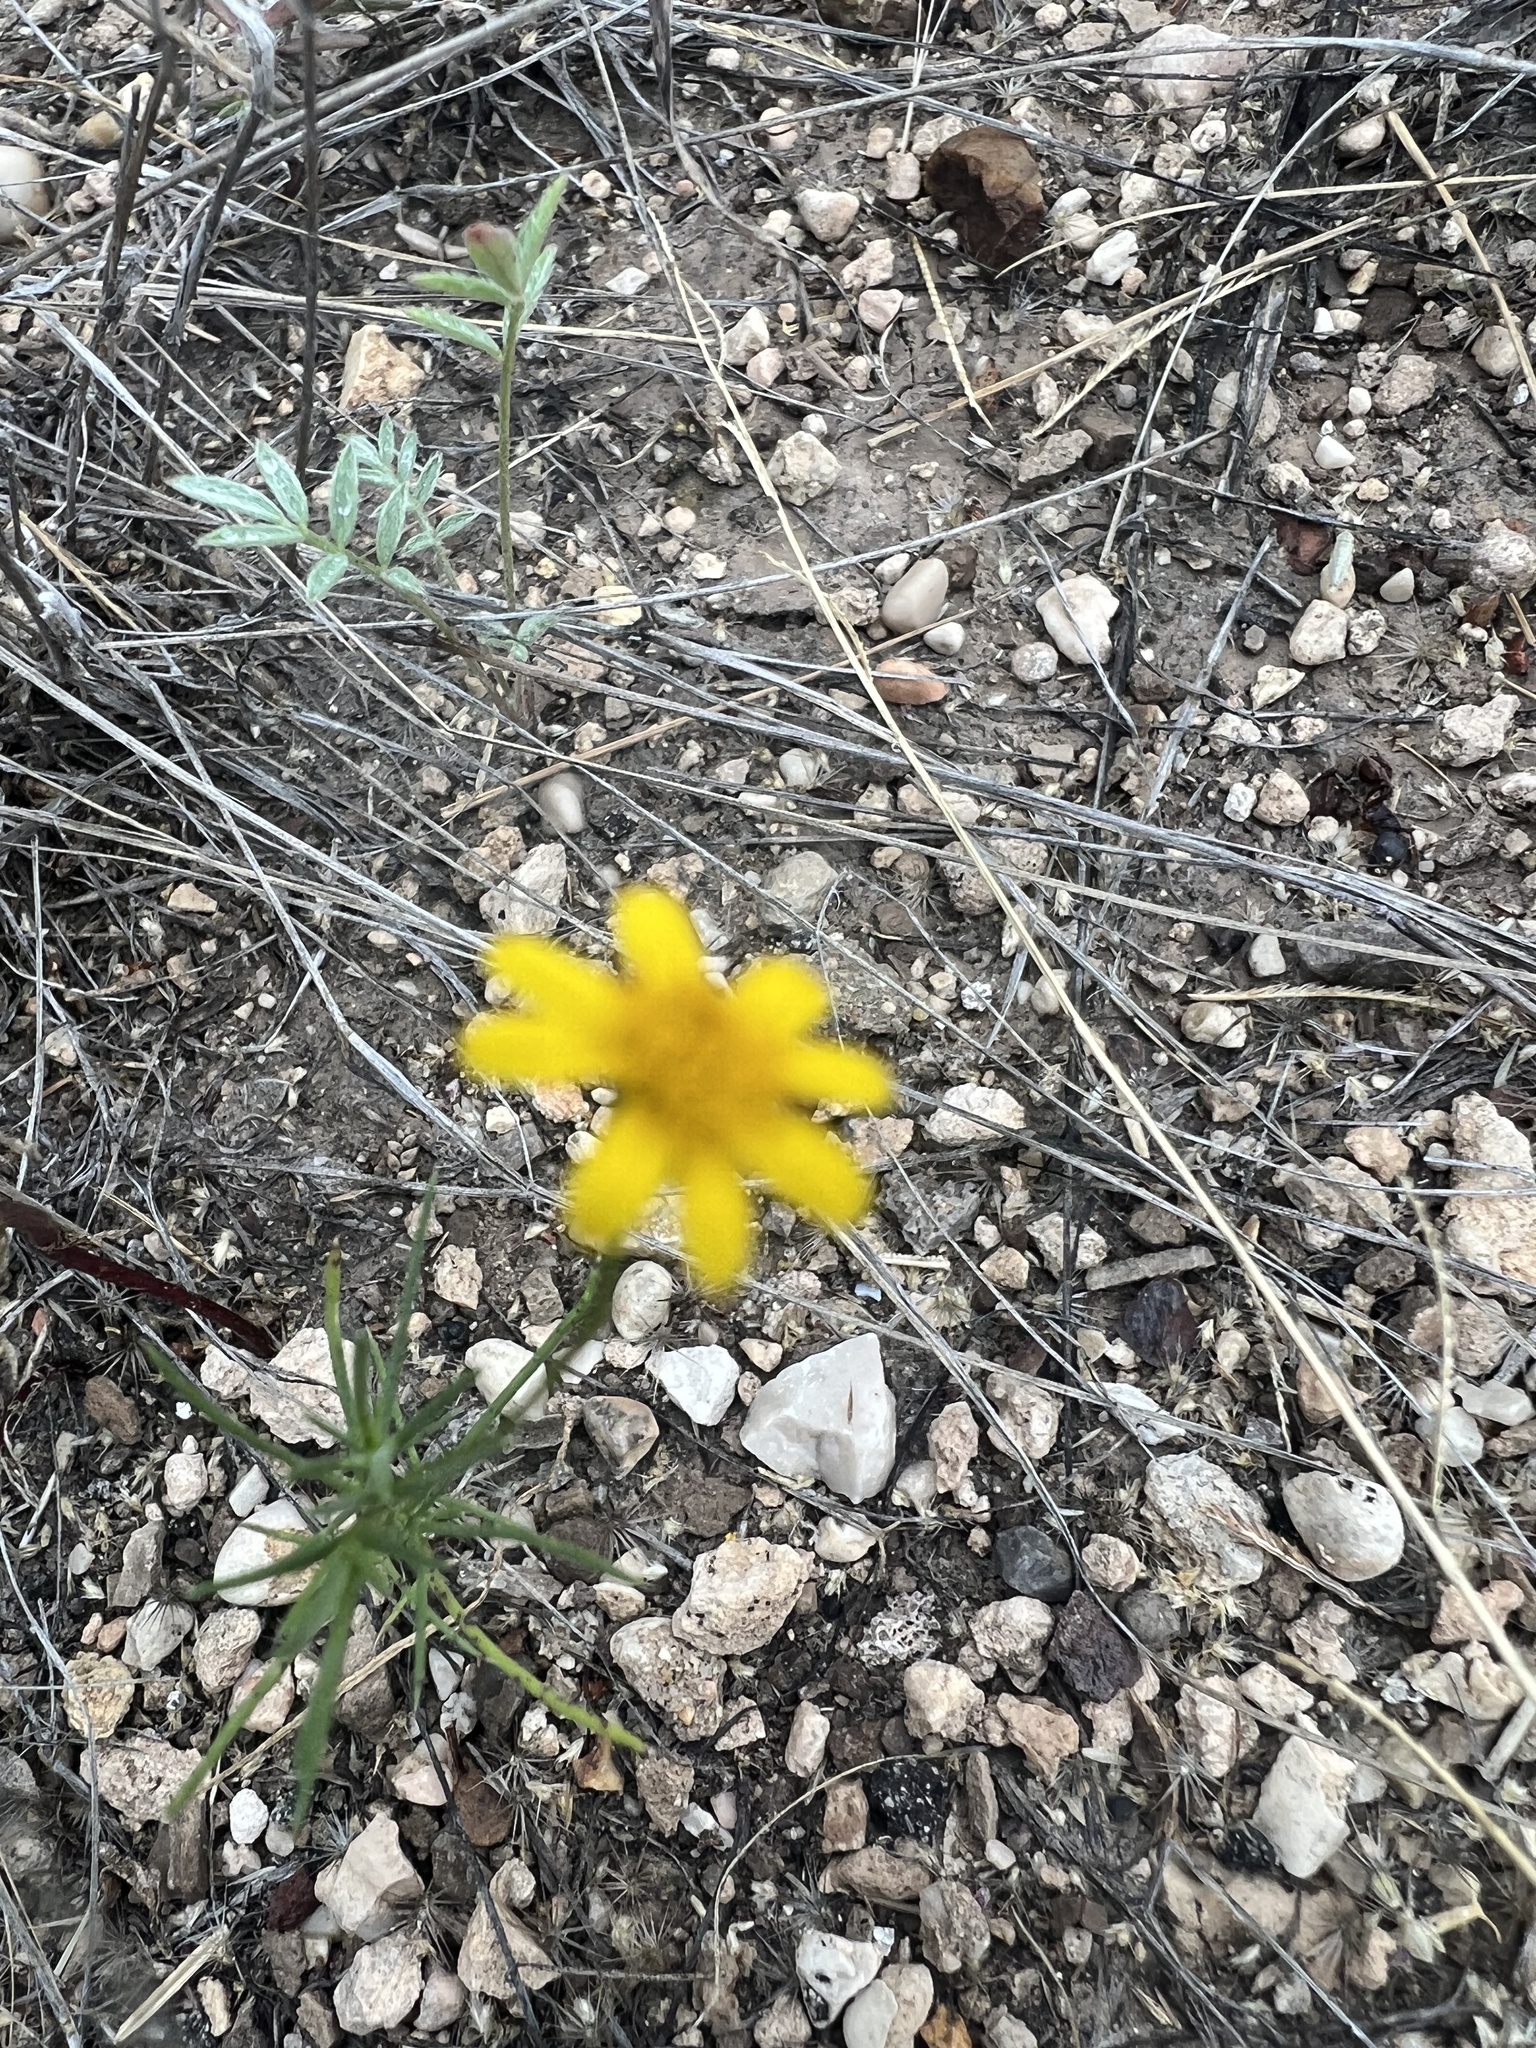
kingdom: Plantae
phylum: Tracheophyta
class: Magnoliopsida
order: Asterales
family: Asteraceae
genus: Thymophylla
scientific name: Thymophylla pentachaeta
